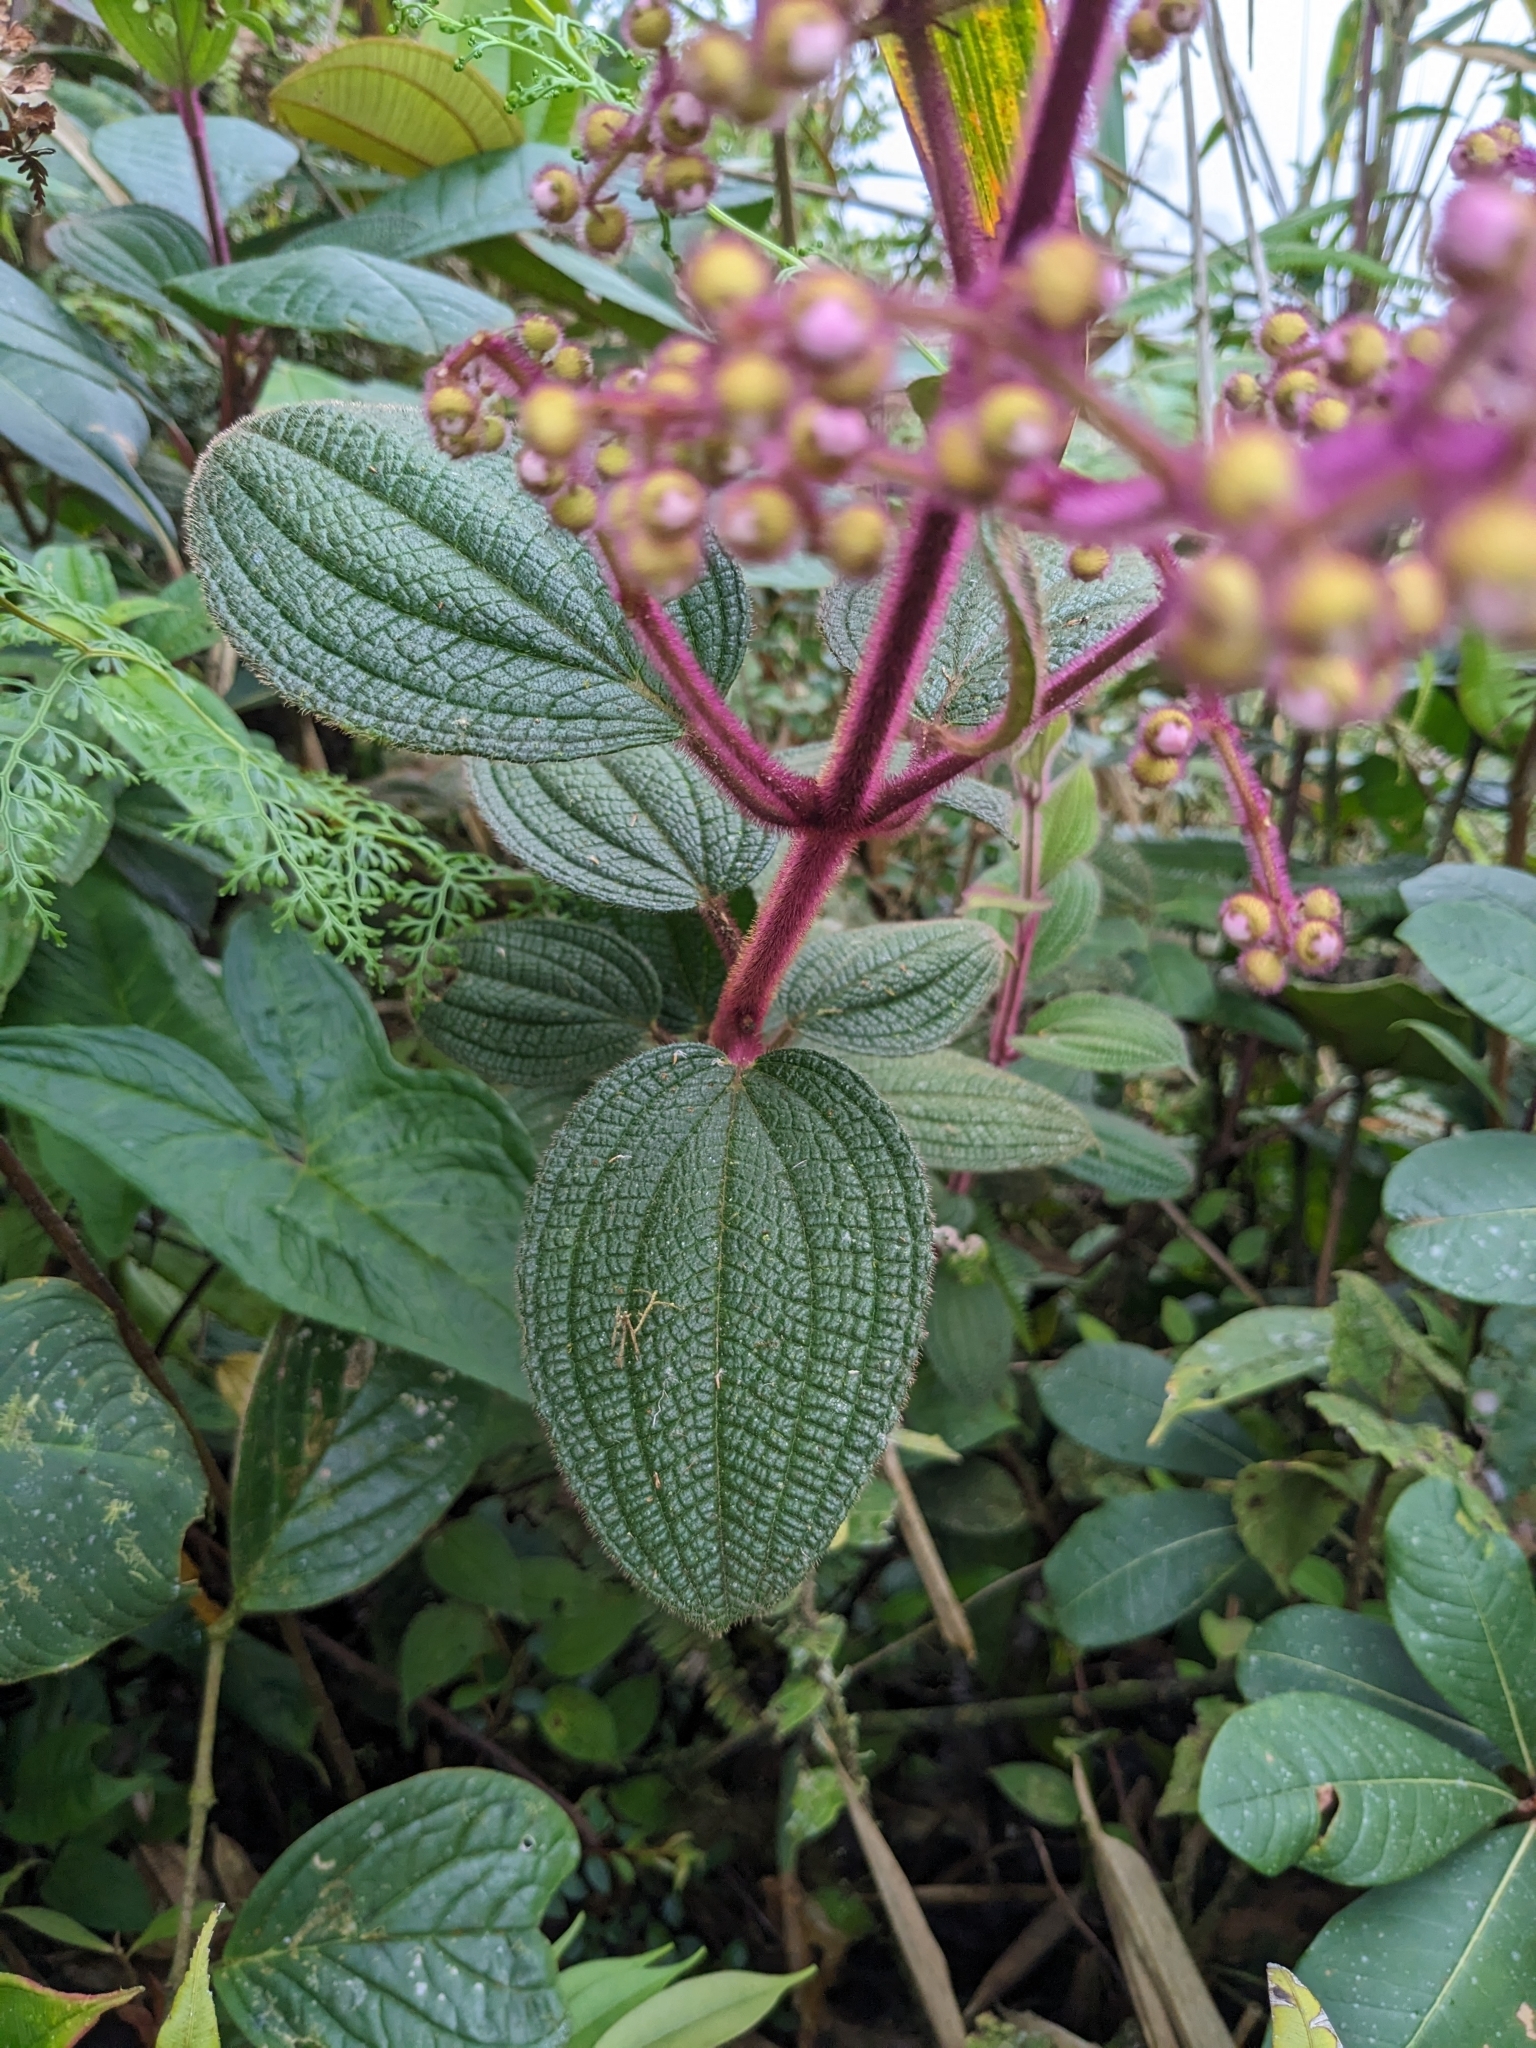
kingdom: Plantae
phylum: Tracheophyta
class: Magnoliopsida
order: Myrtales
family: Melastomataceae
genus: Miconia
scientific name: Miconia goniostigma
